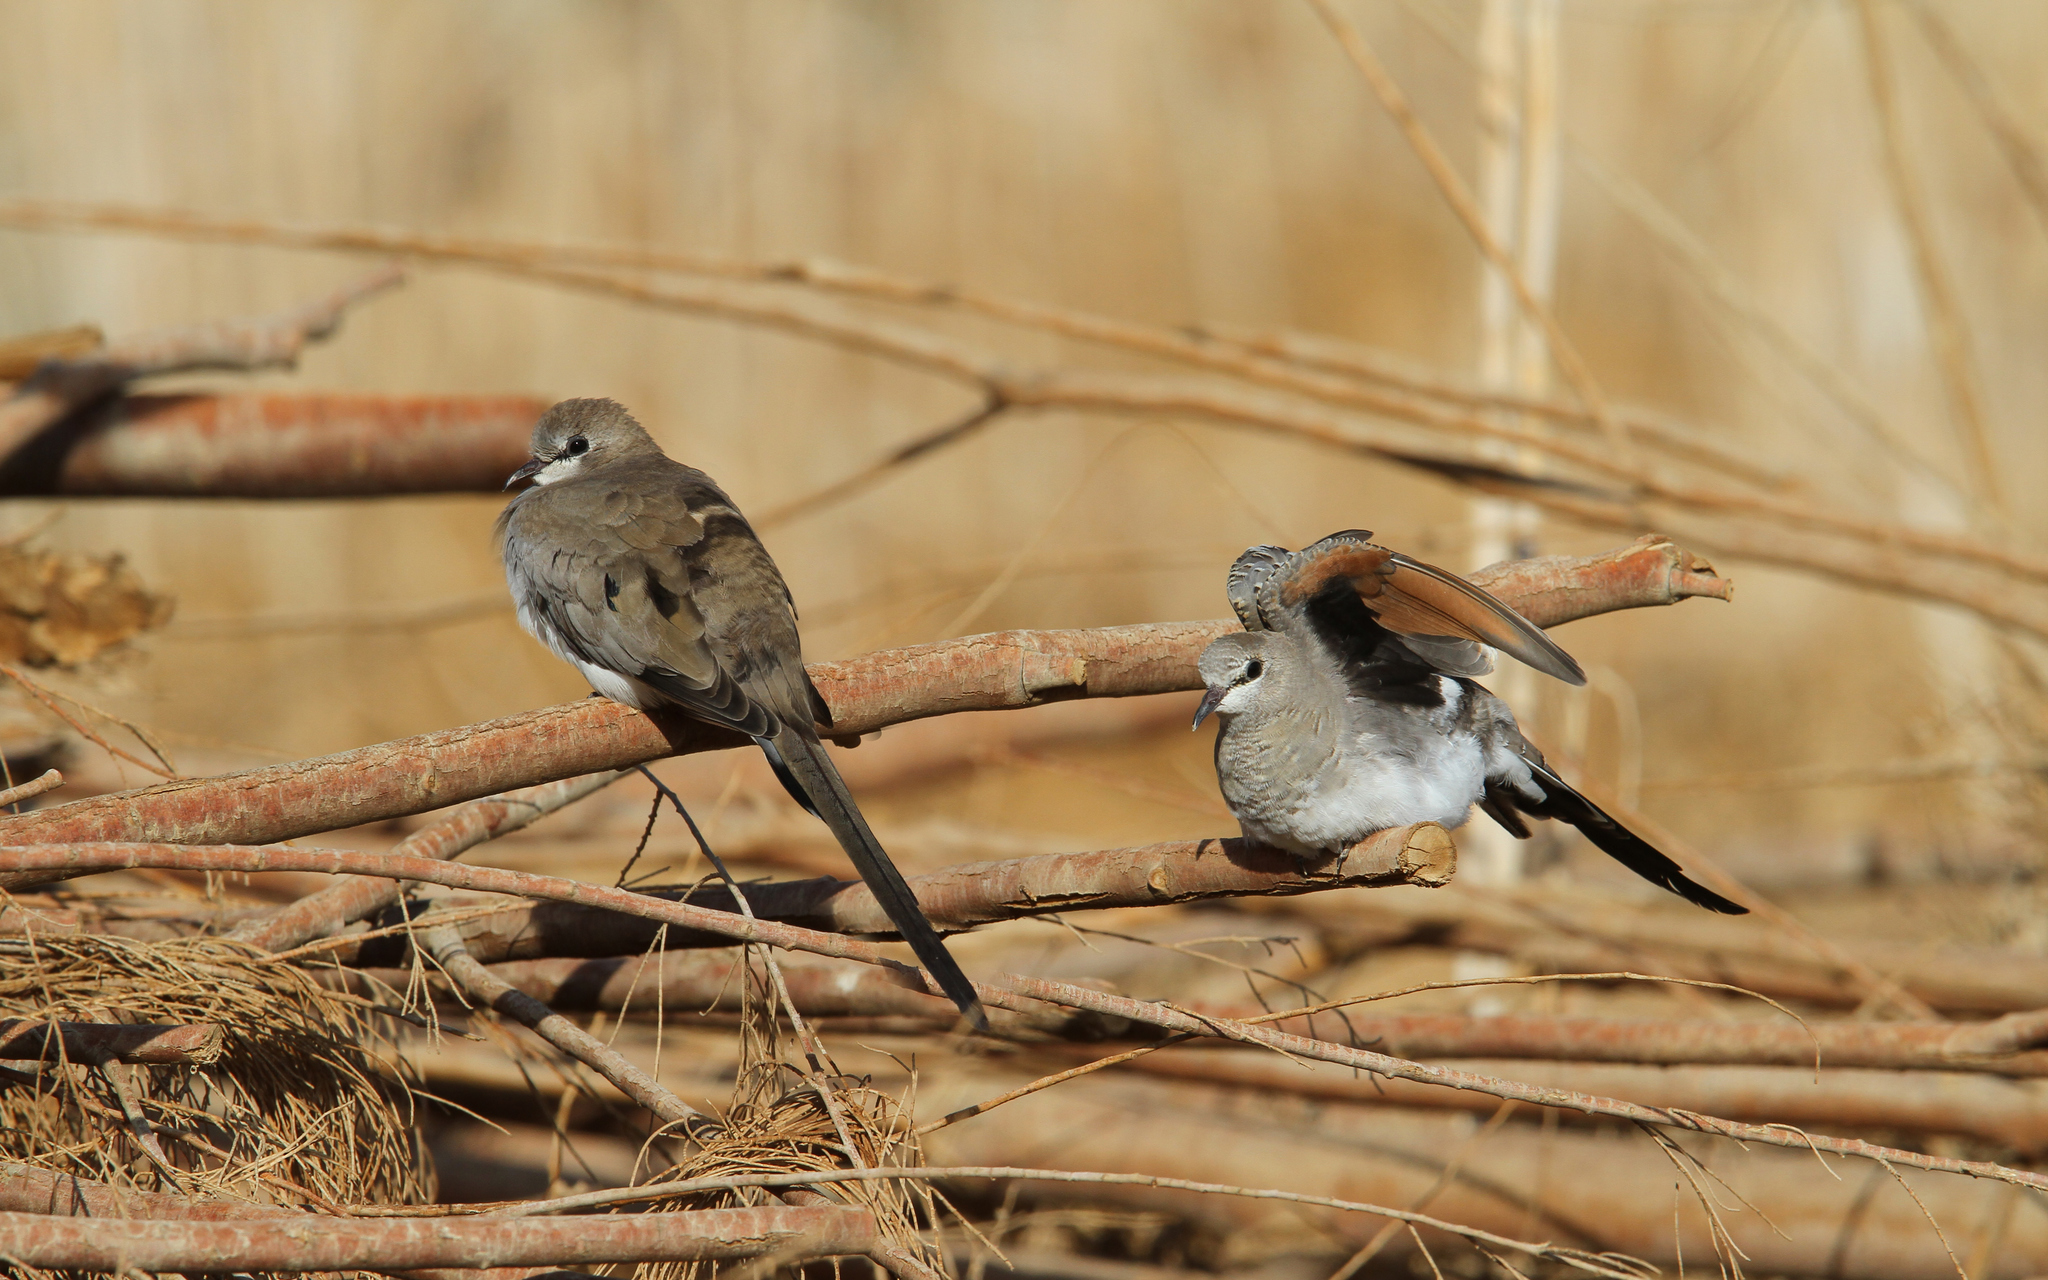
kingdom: Animalia
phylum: Chordata
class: Aves
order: Columbiformes
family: Columbidae
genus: Oena
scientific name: Oena capensis
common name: Namaqua dove
